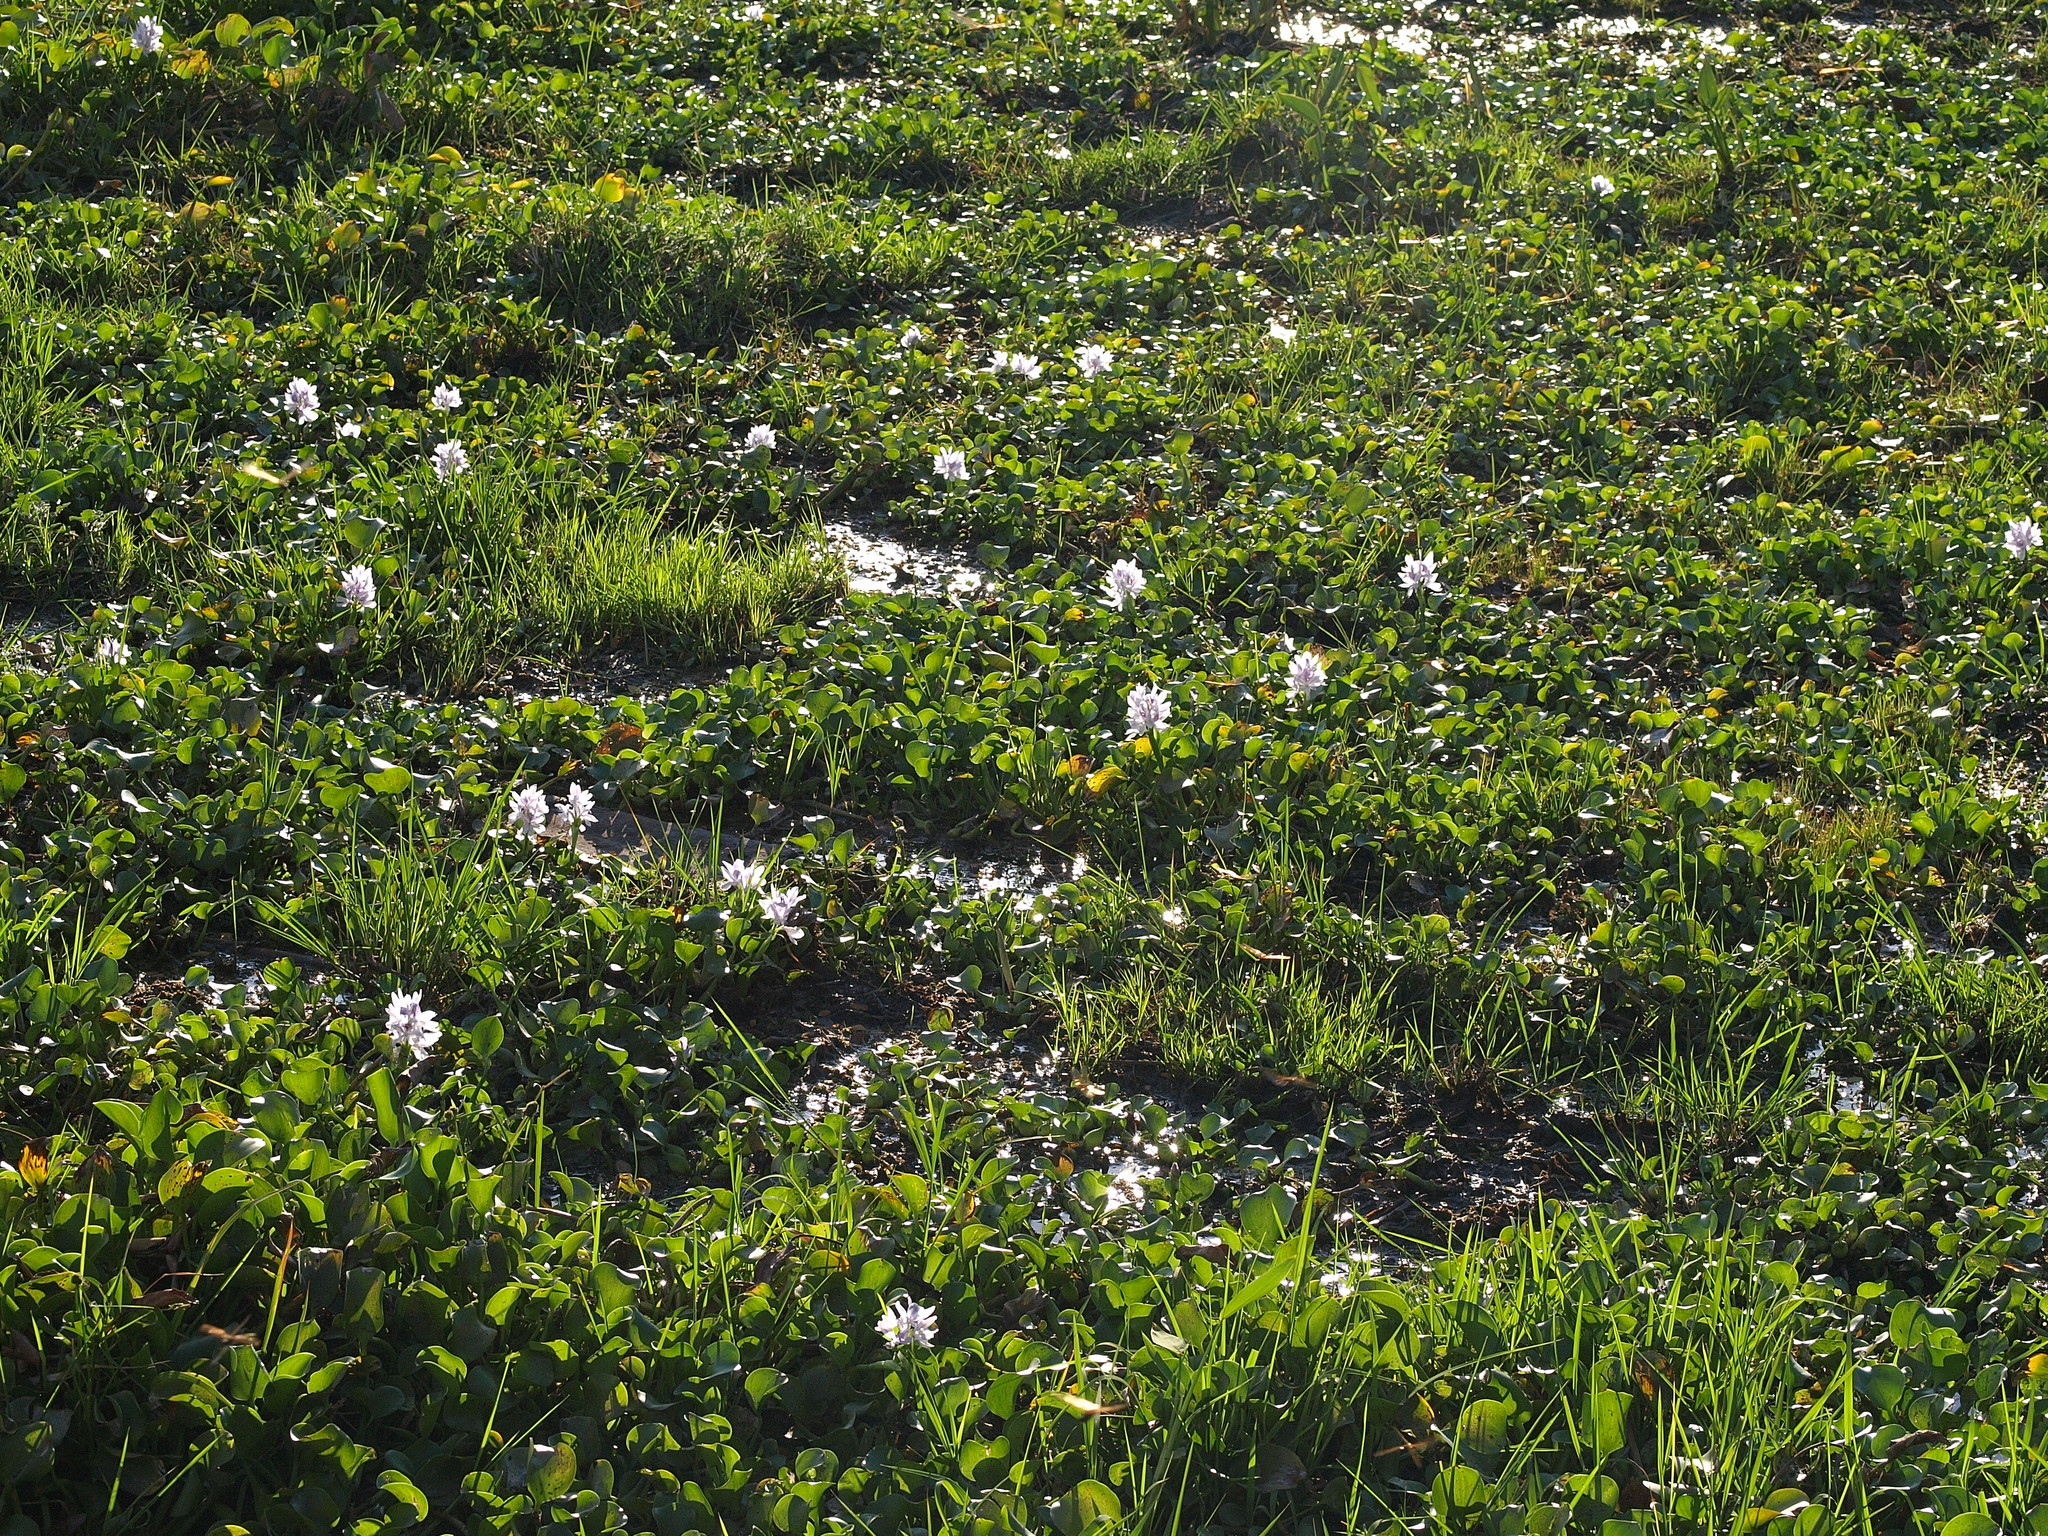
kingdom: Plantae
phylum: Tracheophyta
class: Liliopsida
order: Commelinales
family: Pontederiaceae
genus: Pontederia
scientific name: Pontederia crassipes
